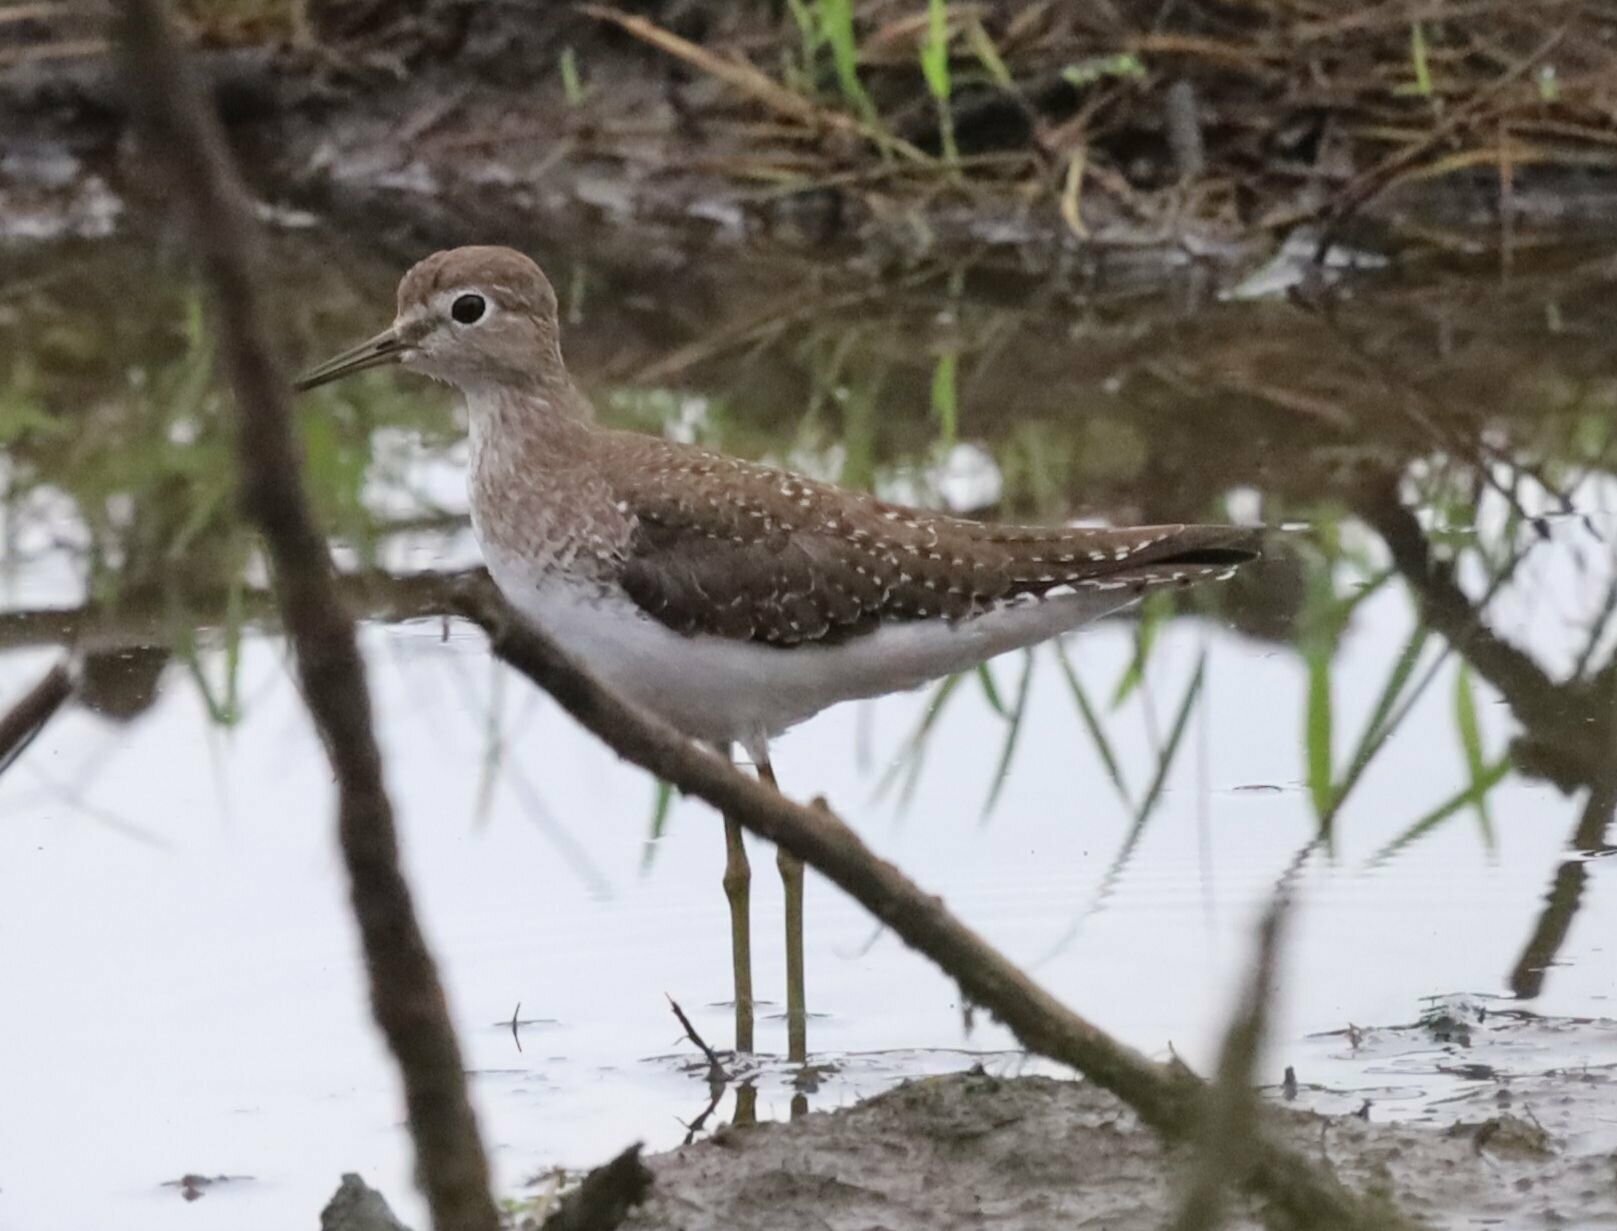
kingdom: Animalia
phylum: Chordata
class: Aves
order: Charadriiformes
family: Scolopacidae
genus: Tringa
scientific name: Tringa solitaria
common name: Solitary sandpiper
